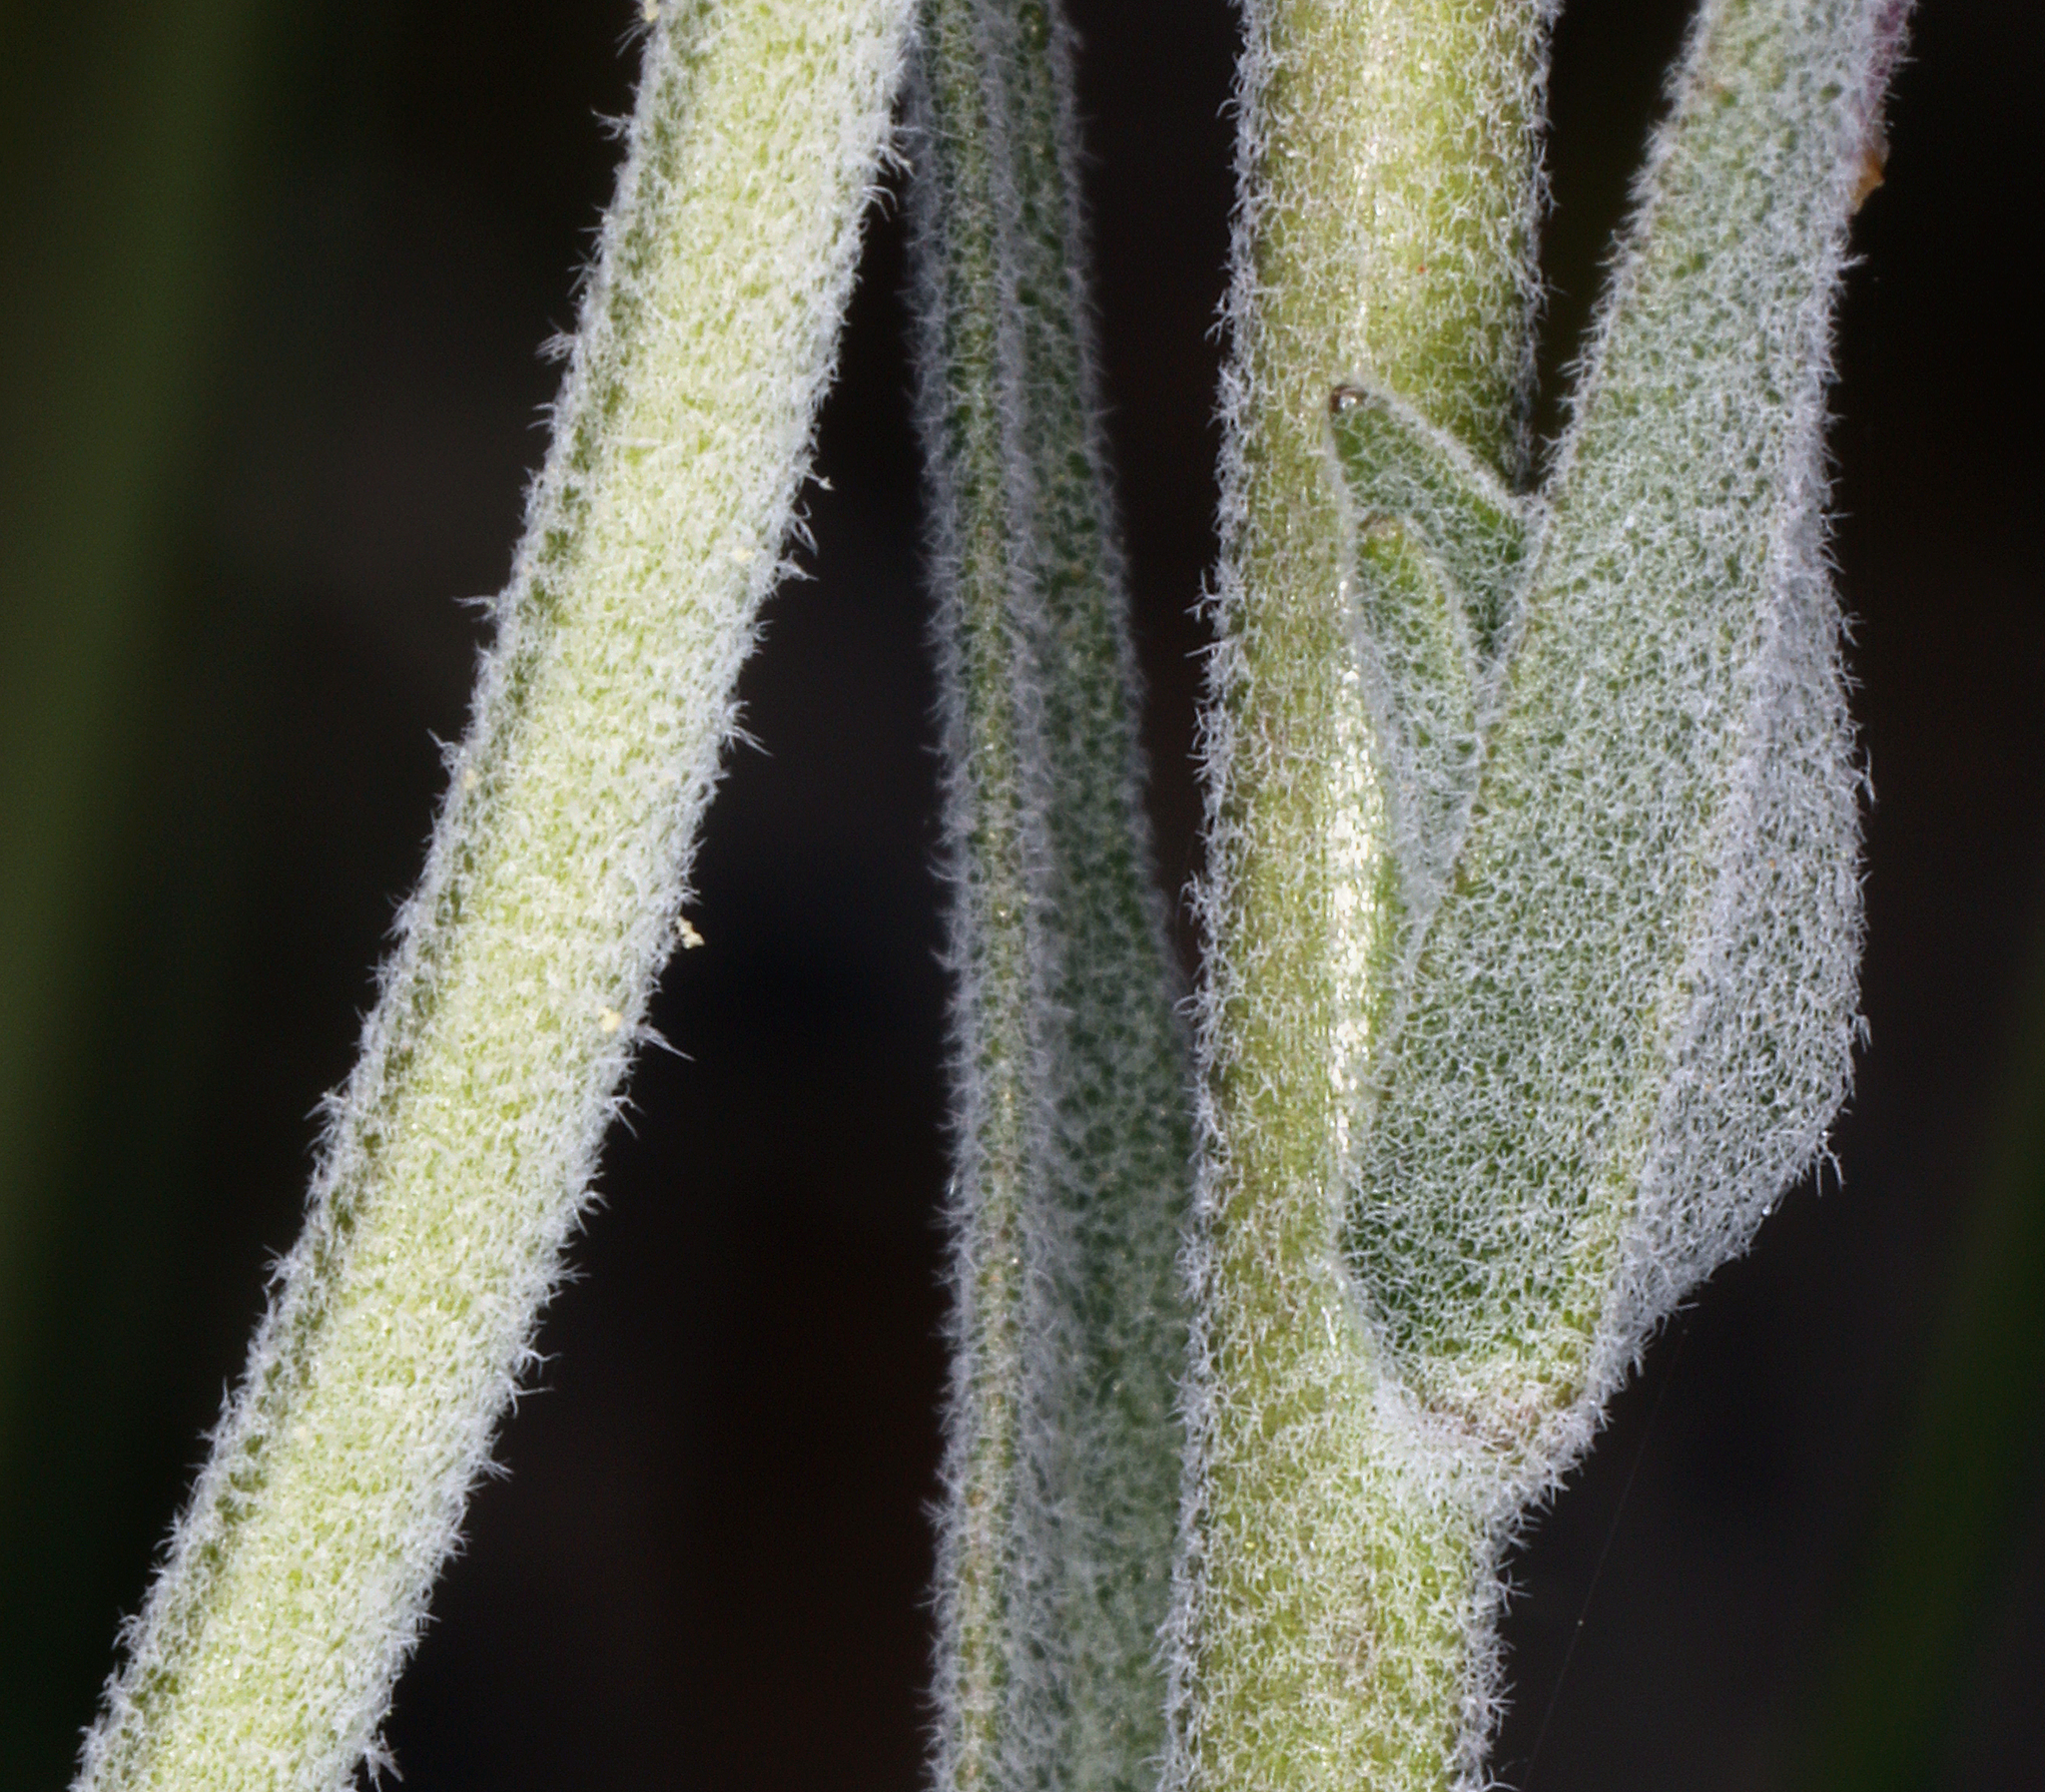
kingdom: Plantae
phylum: Tracheophyta
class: Magnoliopsida
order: Brassicales
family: Brassicaceae
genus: Boechera
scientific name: Boechera pulchra
